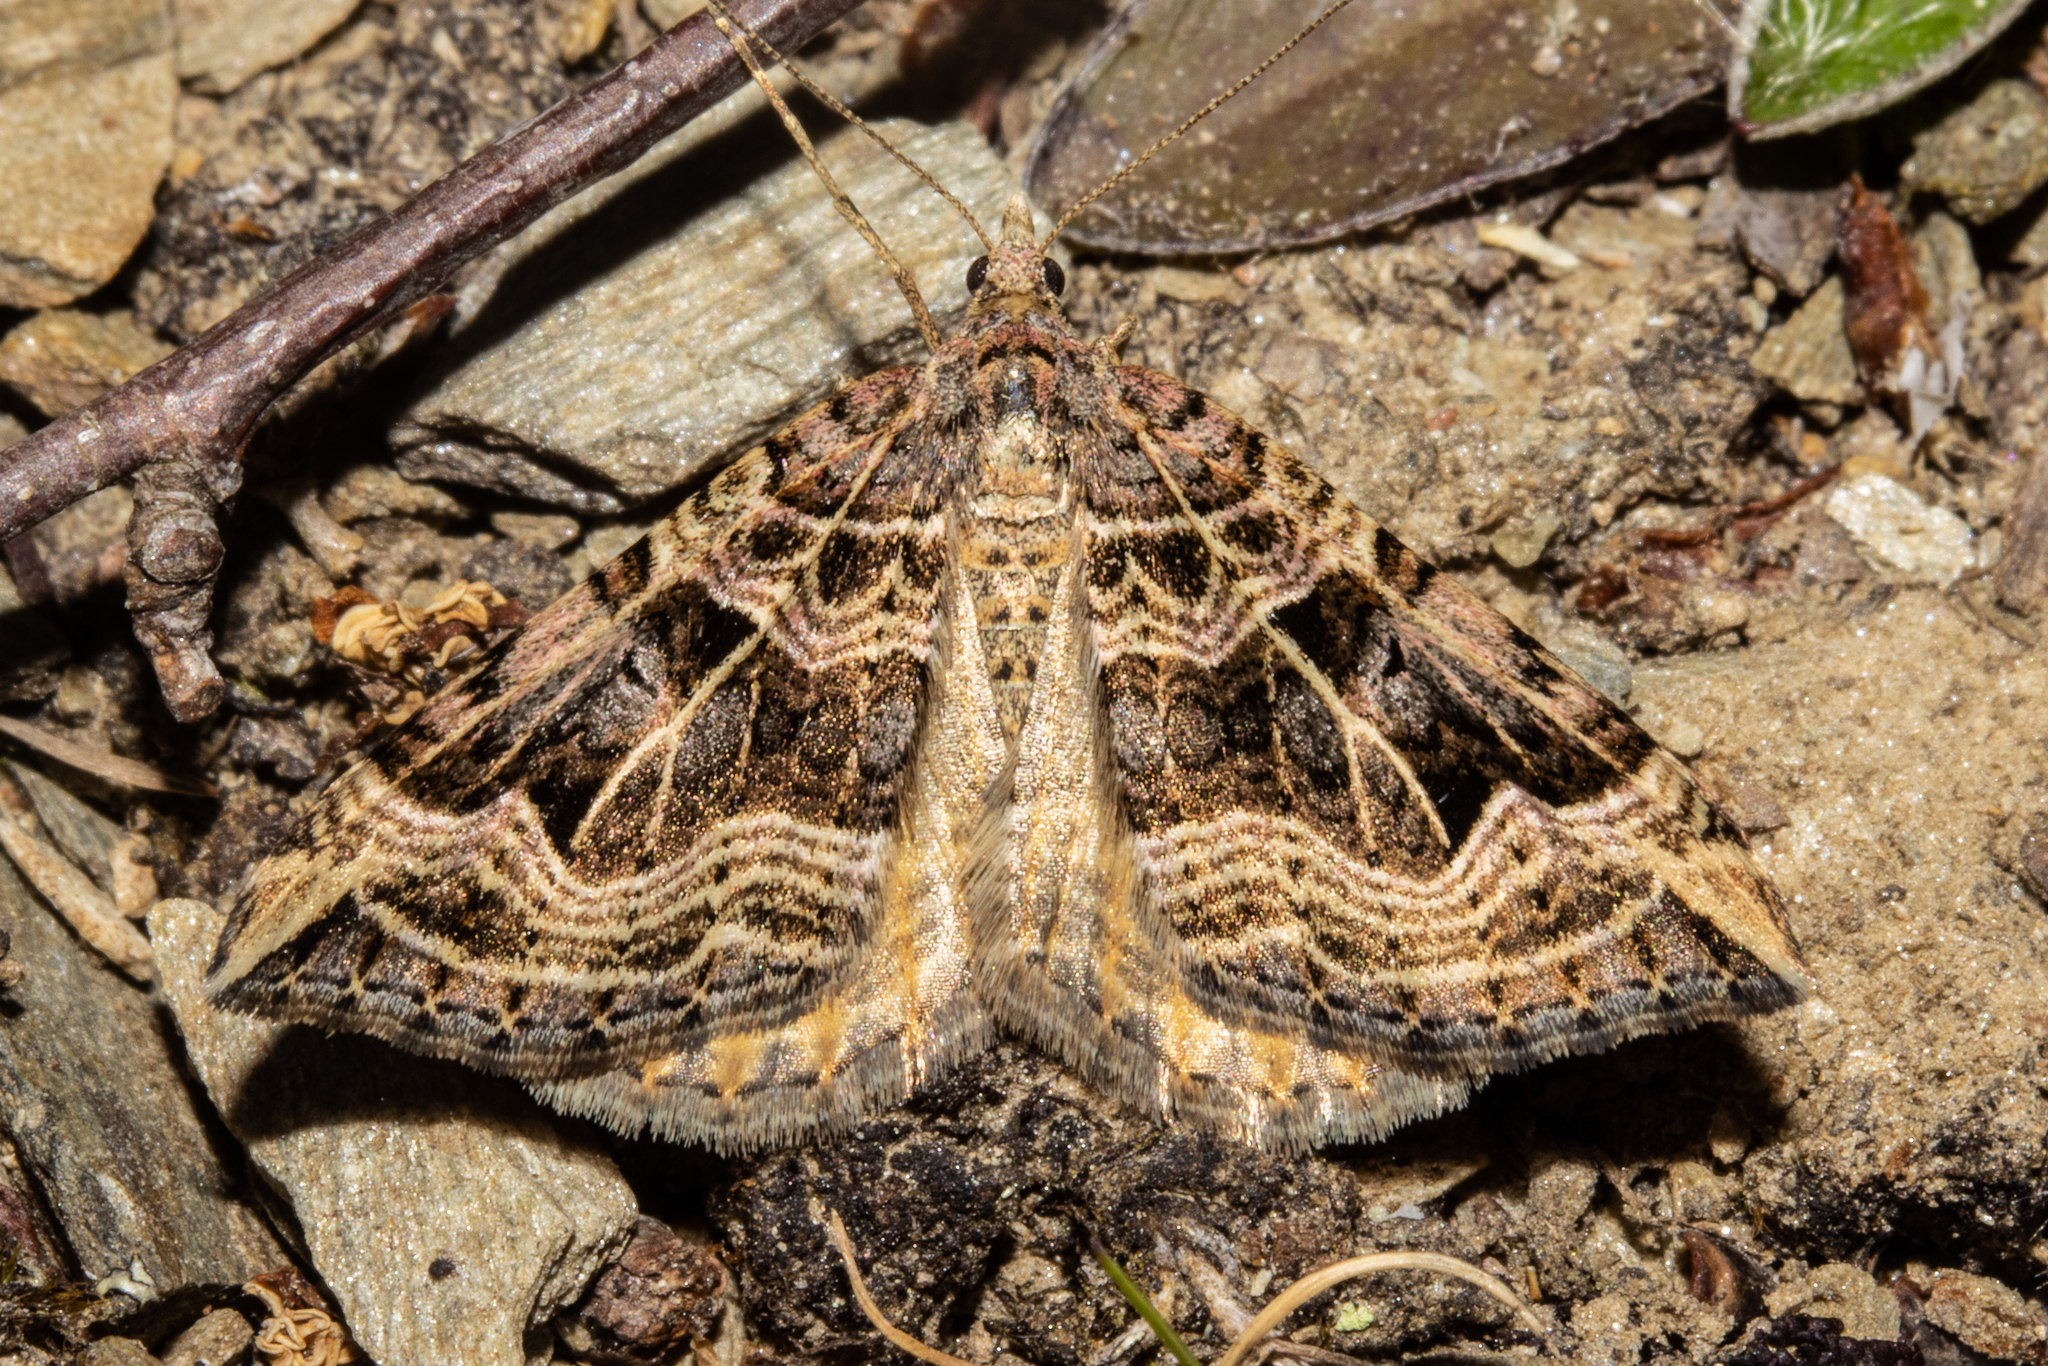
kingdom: Animalia
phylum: Arthropoda
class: Insecta
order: Lepidoptera
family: Geometridae
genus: Xanthorhoe
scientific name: Xanthorhoe semifissata
